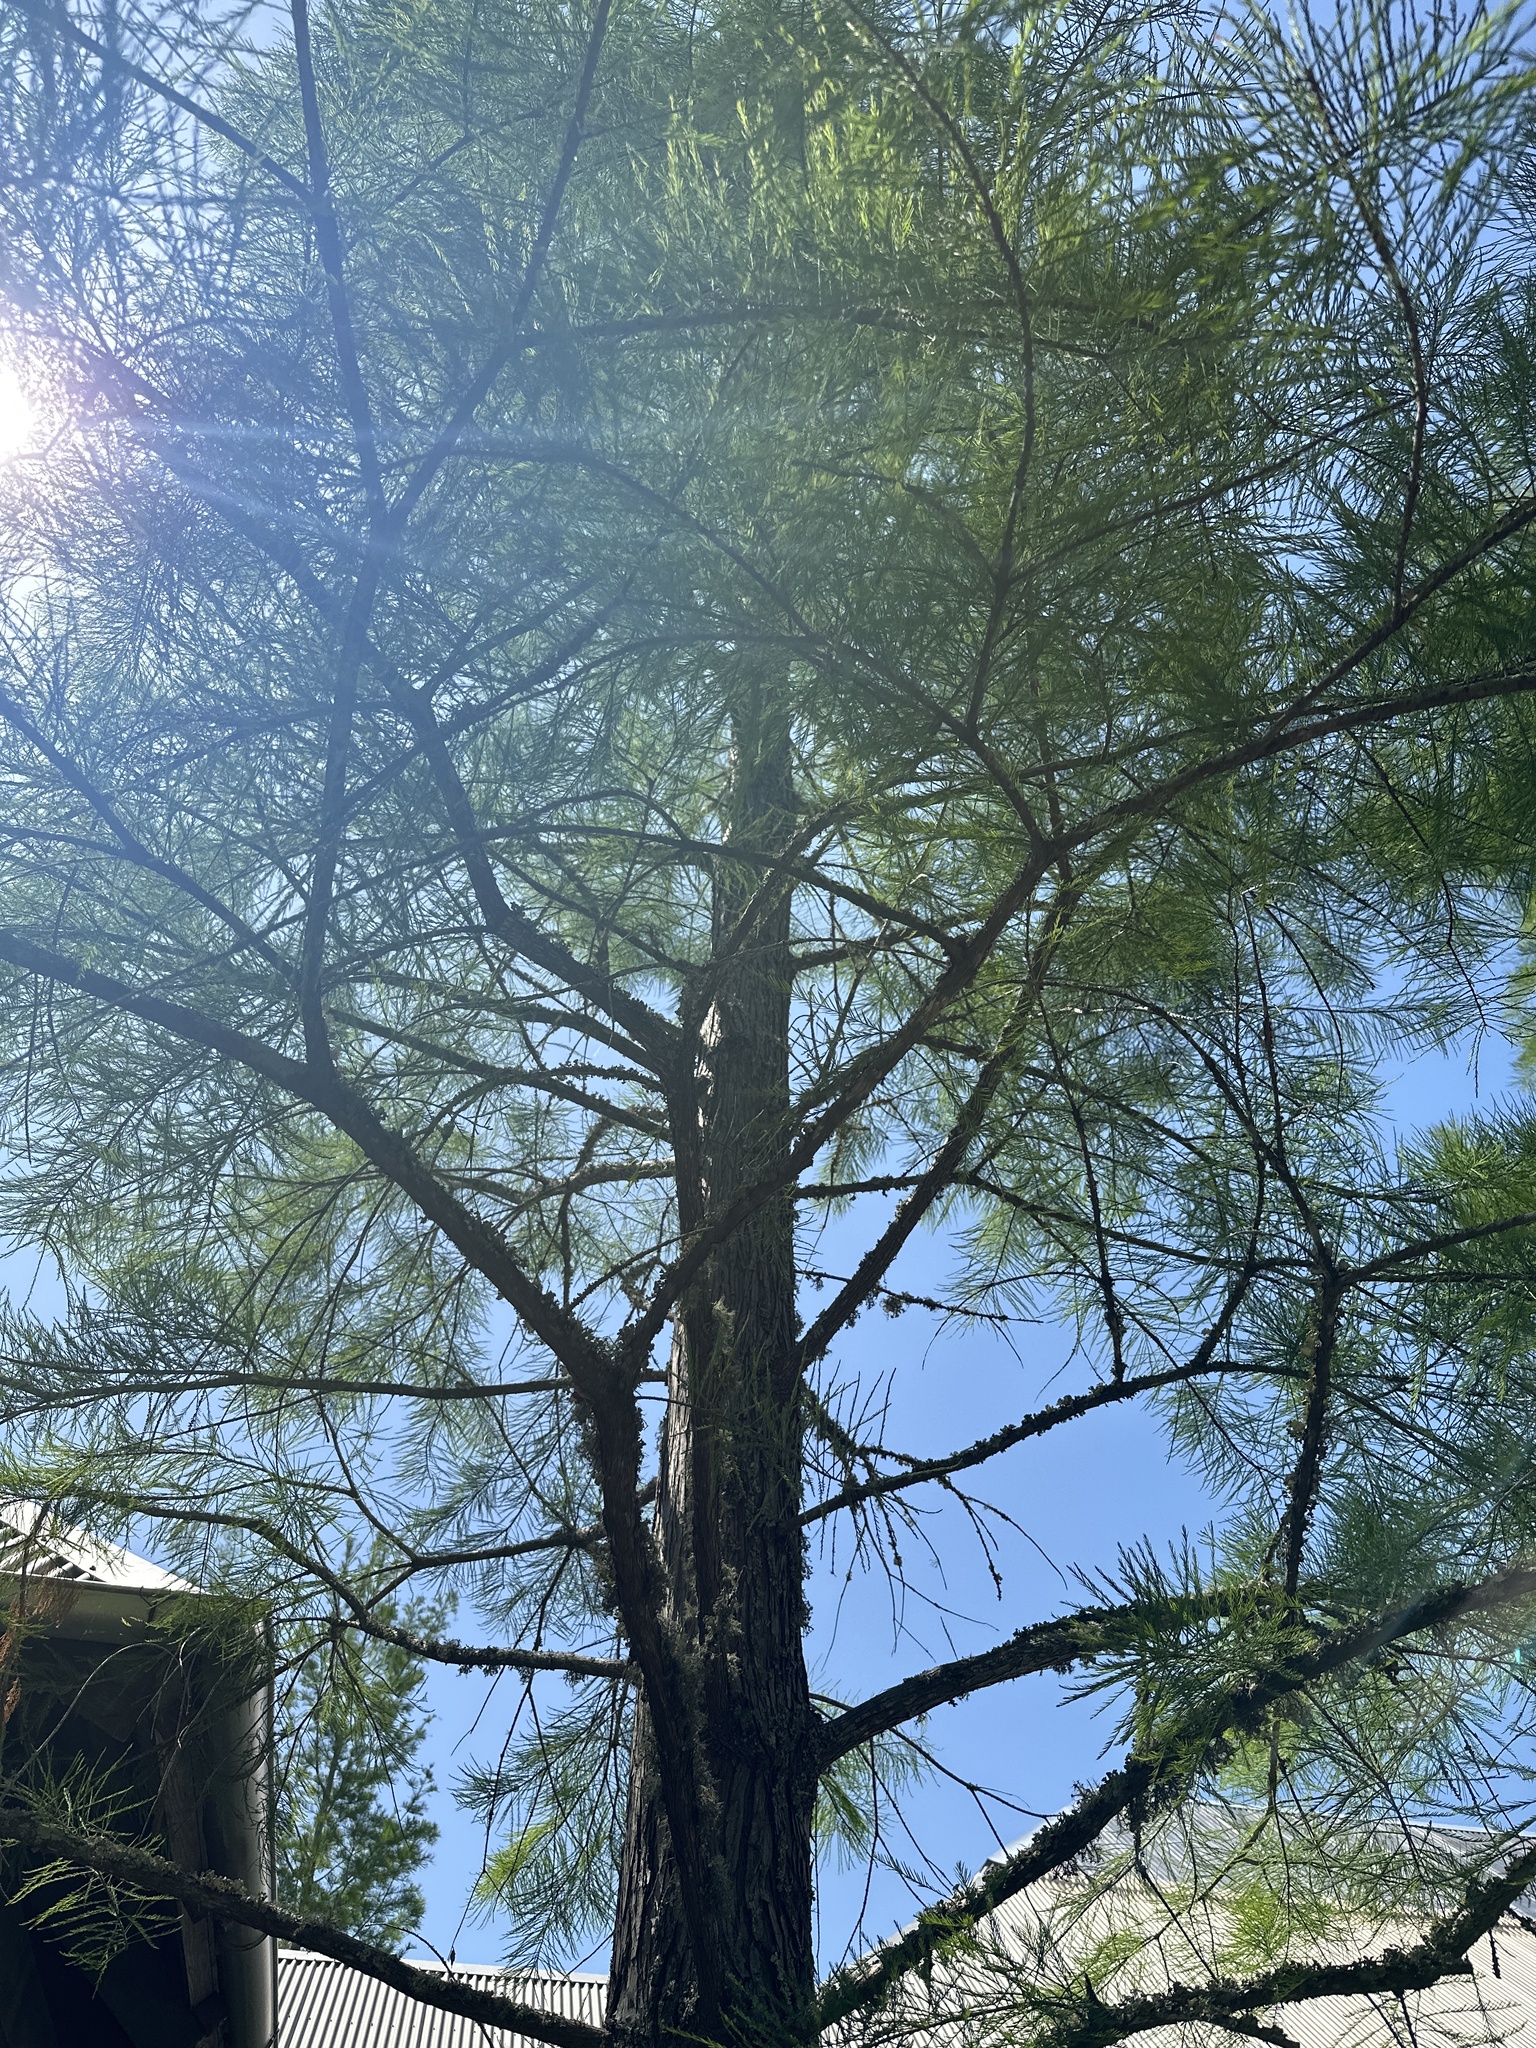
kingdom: Plantae
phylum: Tracheophyta
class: Pinopsida
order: Pinales
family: Cupressaceae
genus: Taxodium
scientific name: Taxodium distichum
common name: Bald cypress
